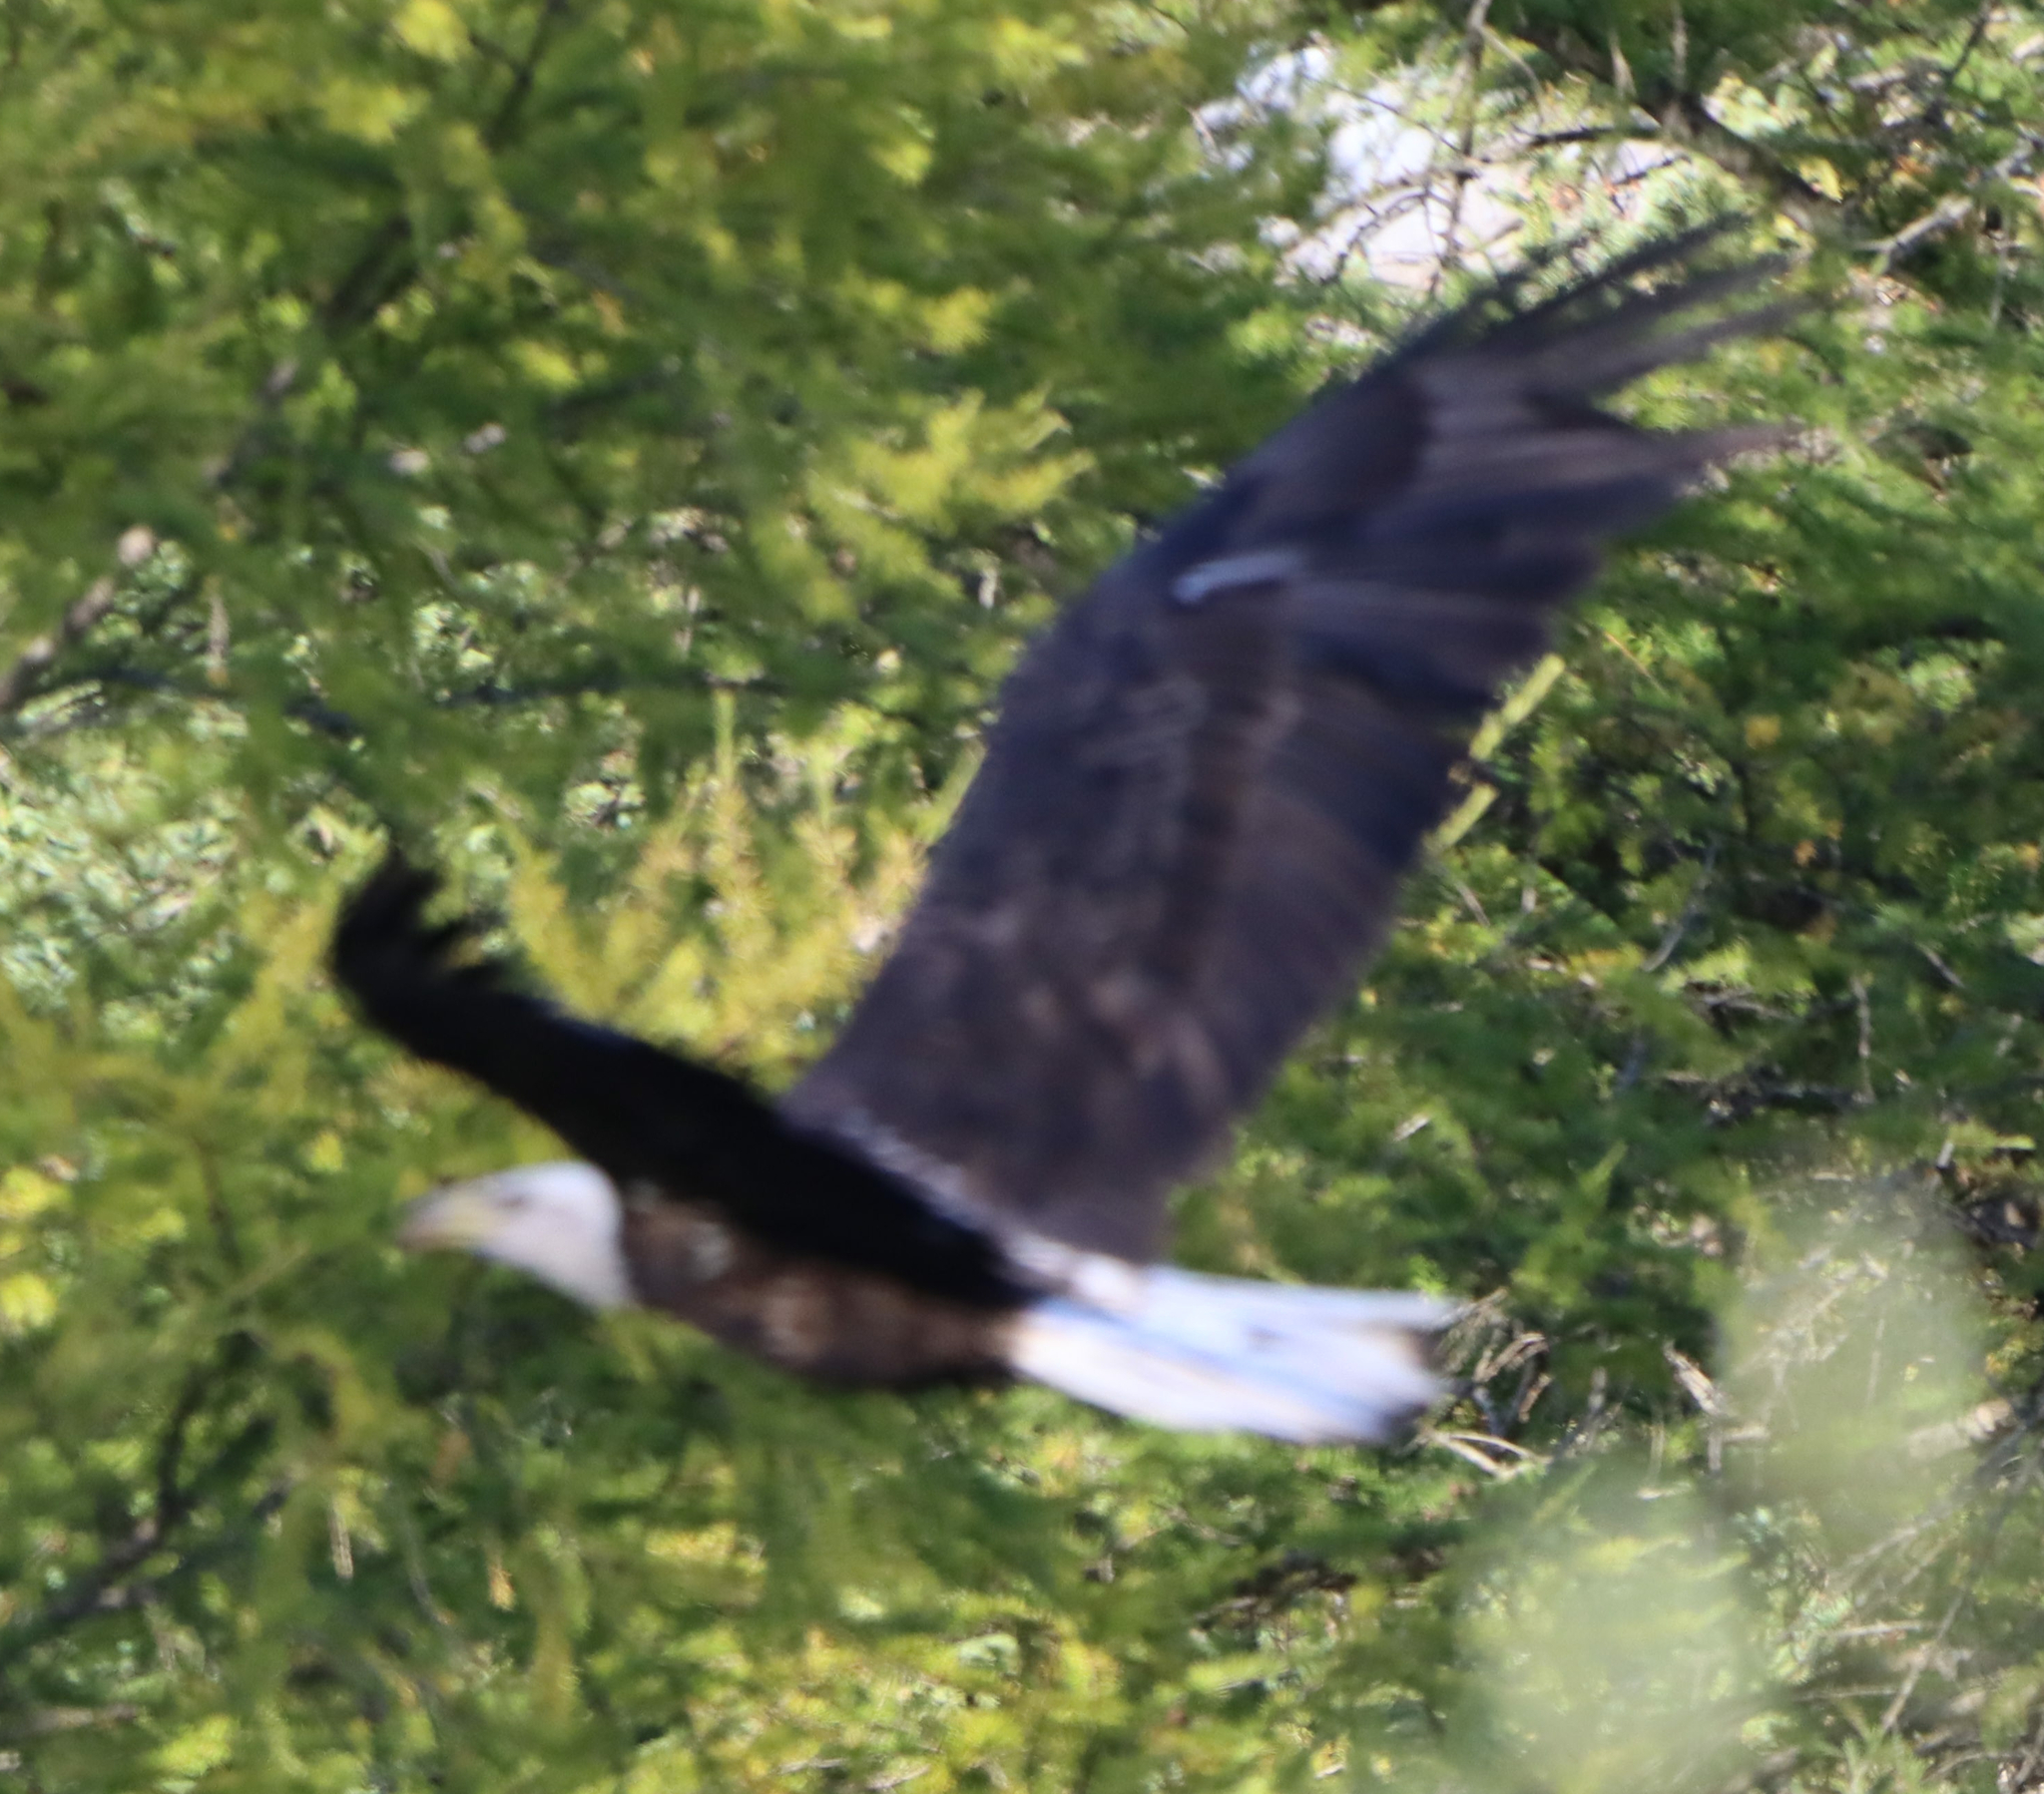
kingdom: Animalia
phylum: Chordata
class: Aves
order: Accipitriformes
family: Accipitridae
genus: Haliaeetus
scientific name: Haliaeetus leucocephalus
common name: Bald eagle
